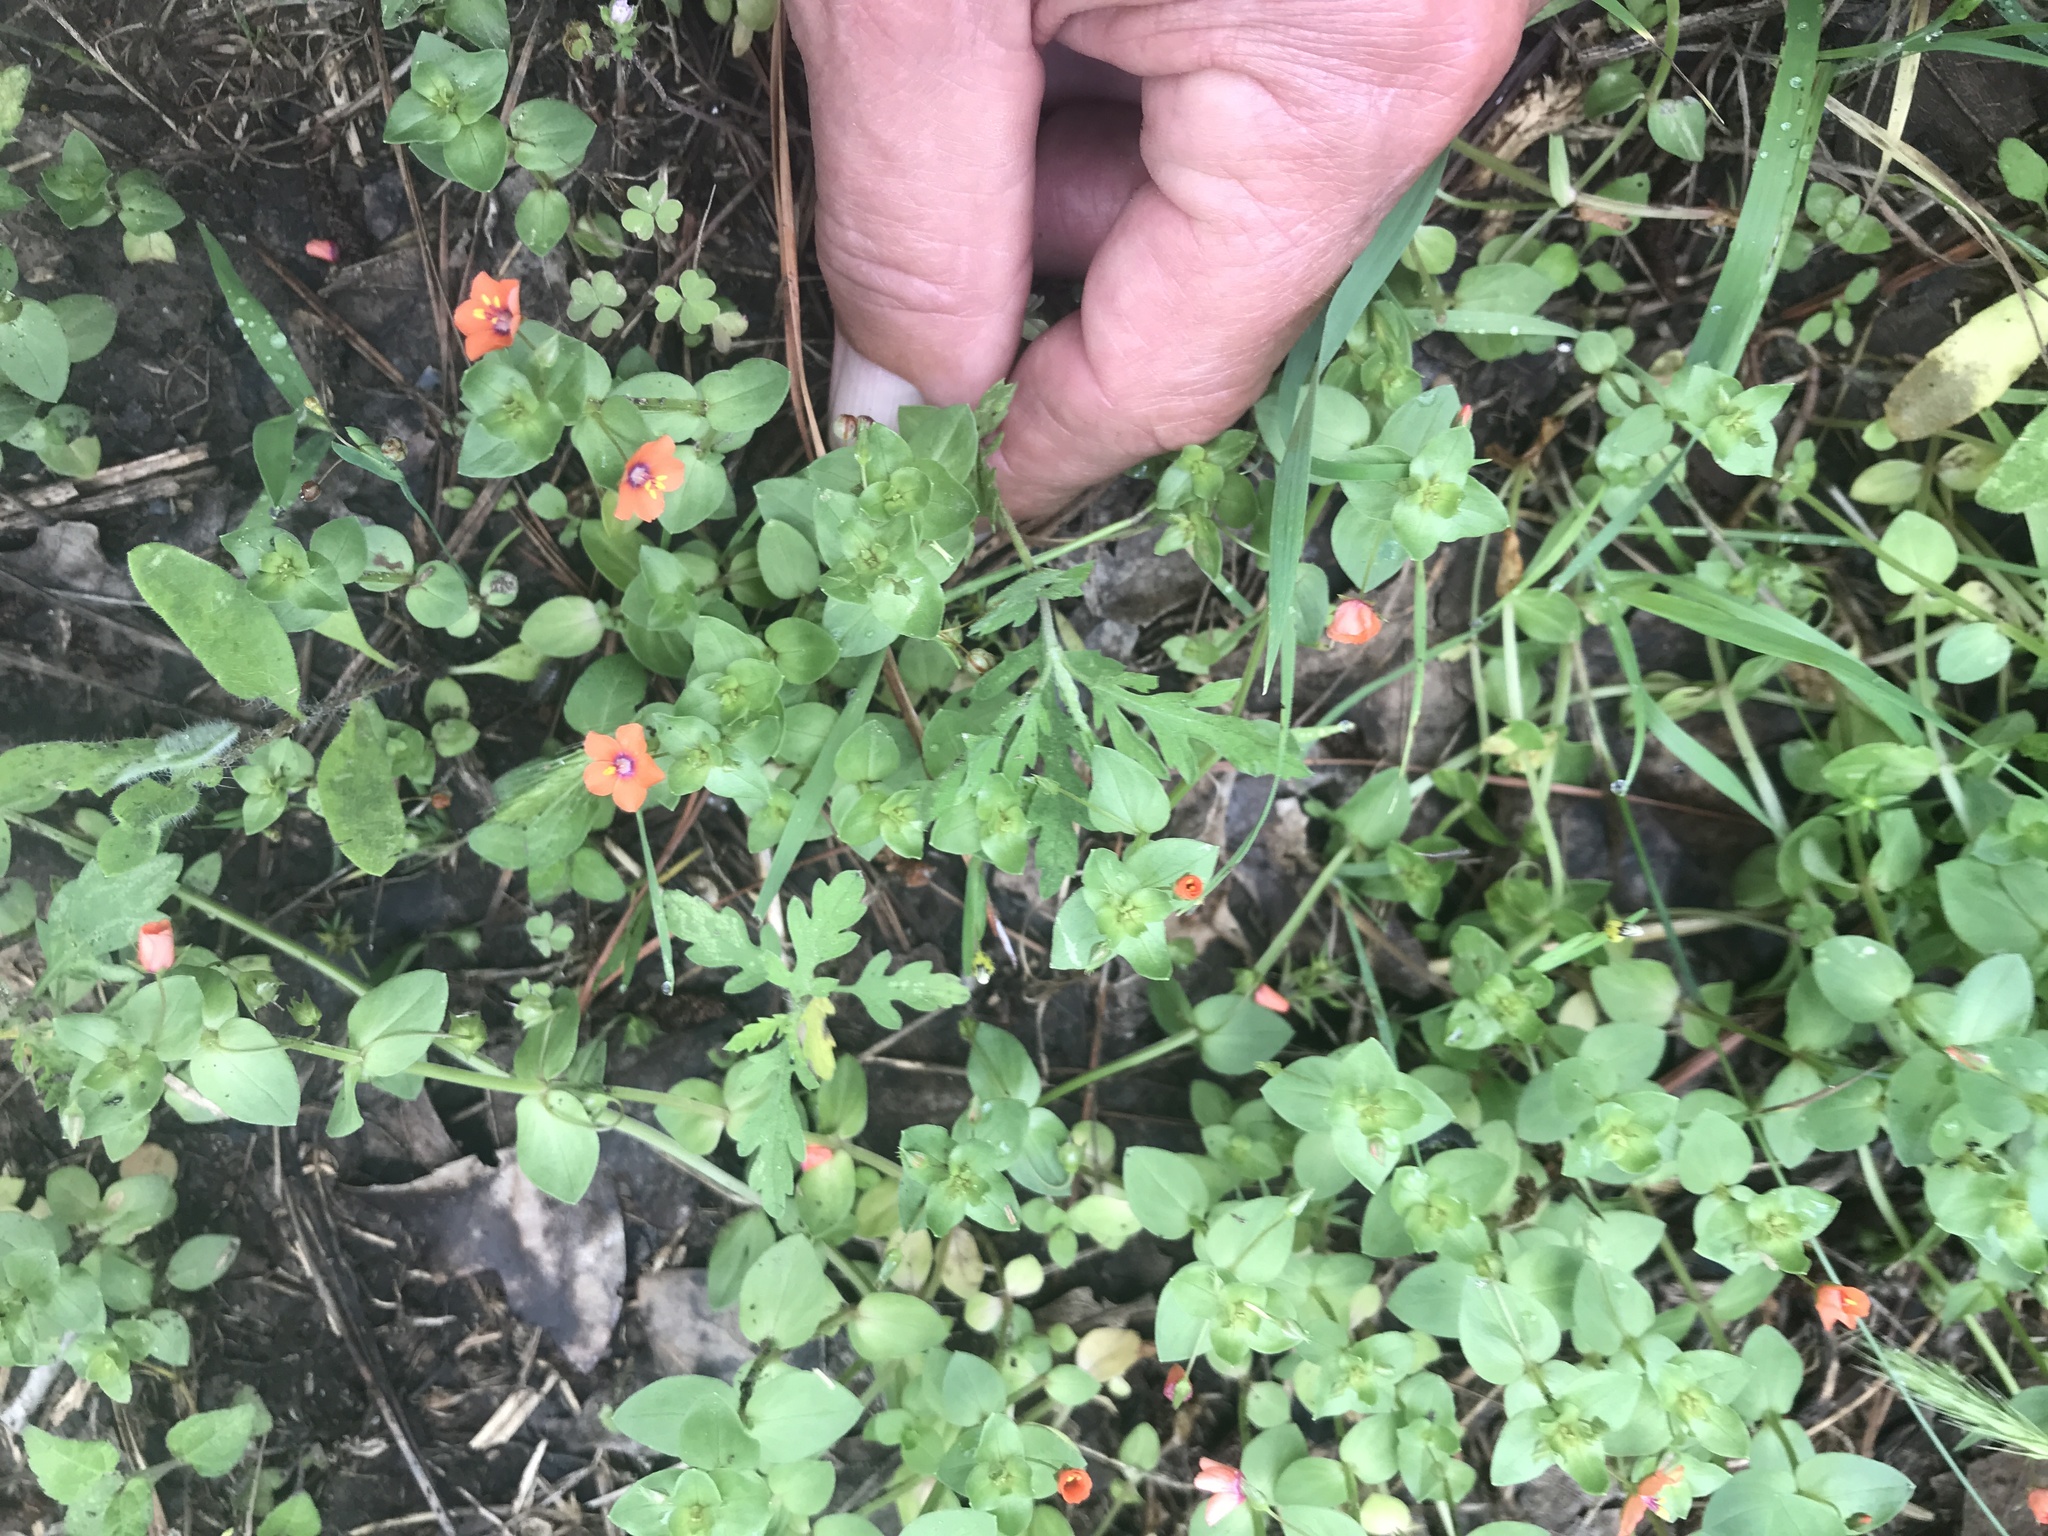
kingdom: Plantae
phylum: Tracheophyta
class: Magnoliopsida
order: Ericales
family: Primulaceae
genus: Lysimachia
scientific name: Lysimachia arvensis
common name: Scarlet pimpernel
